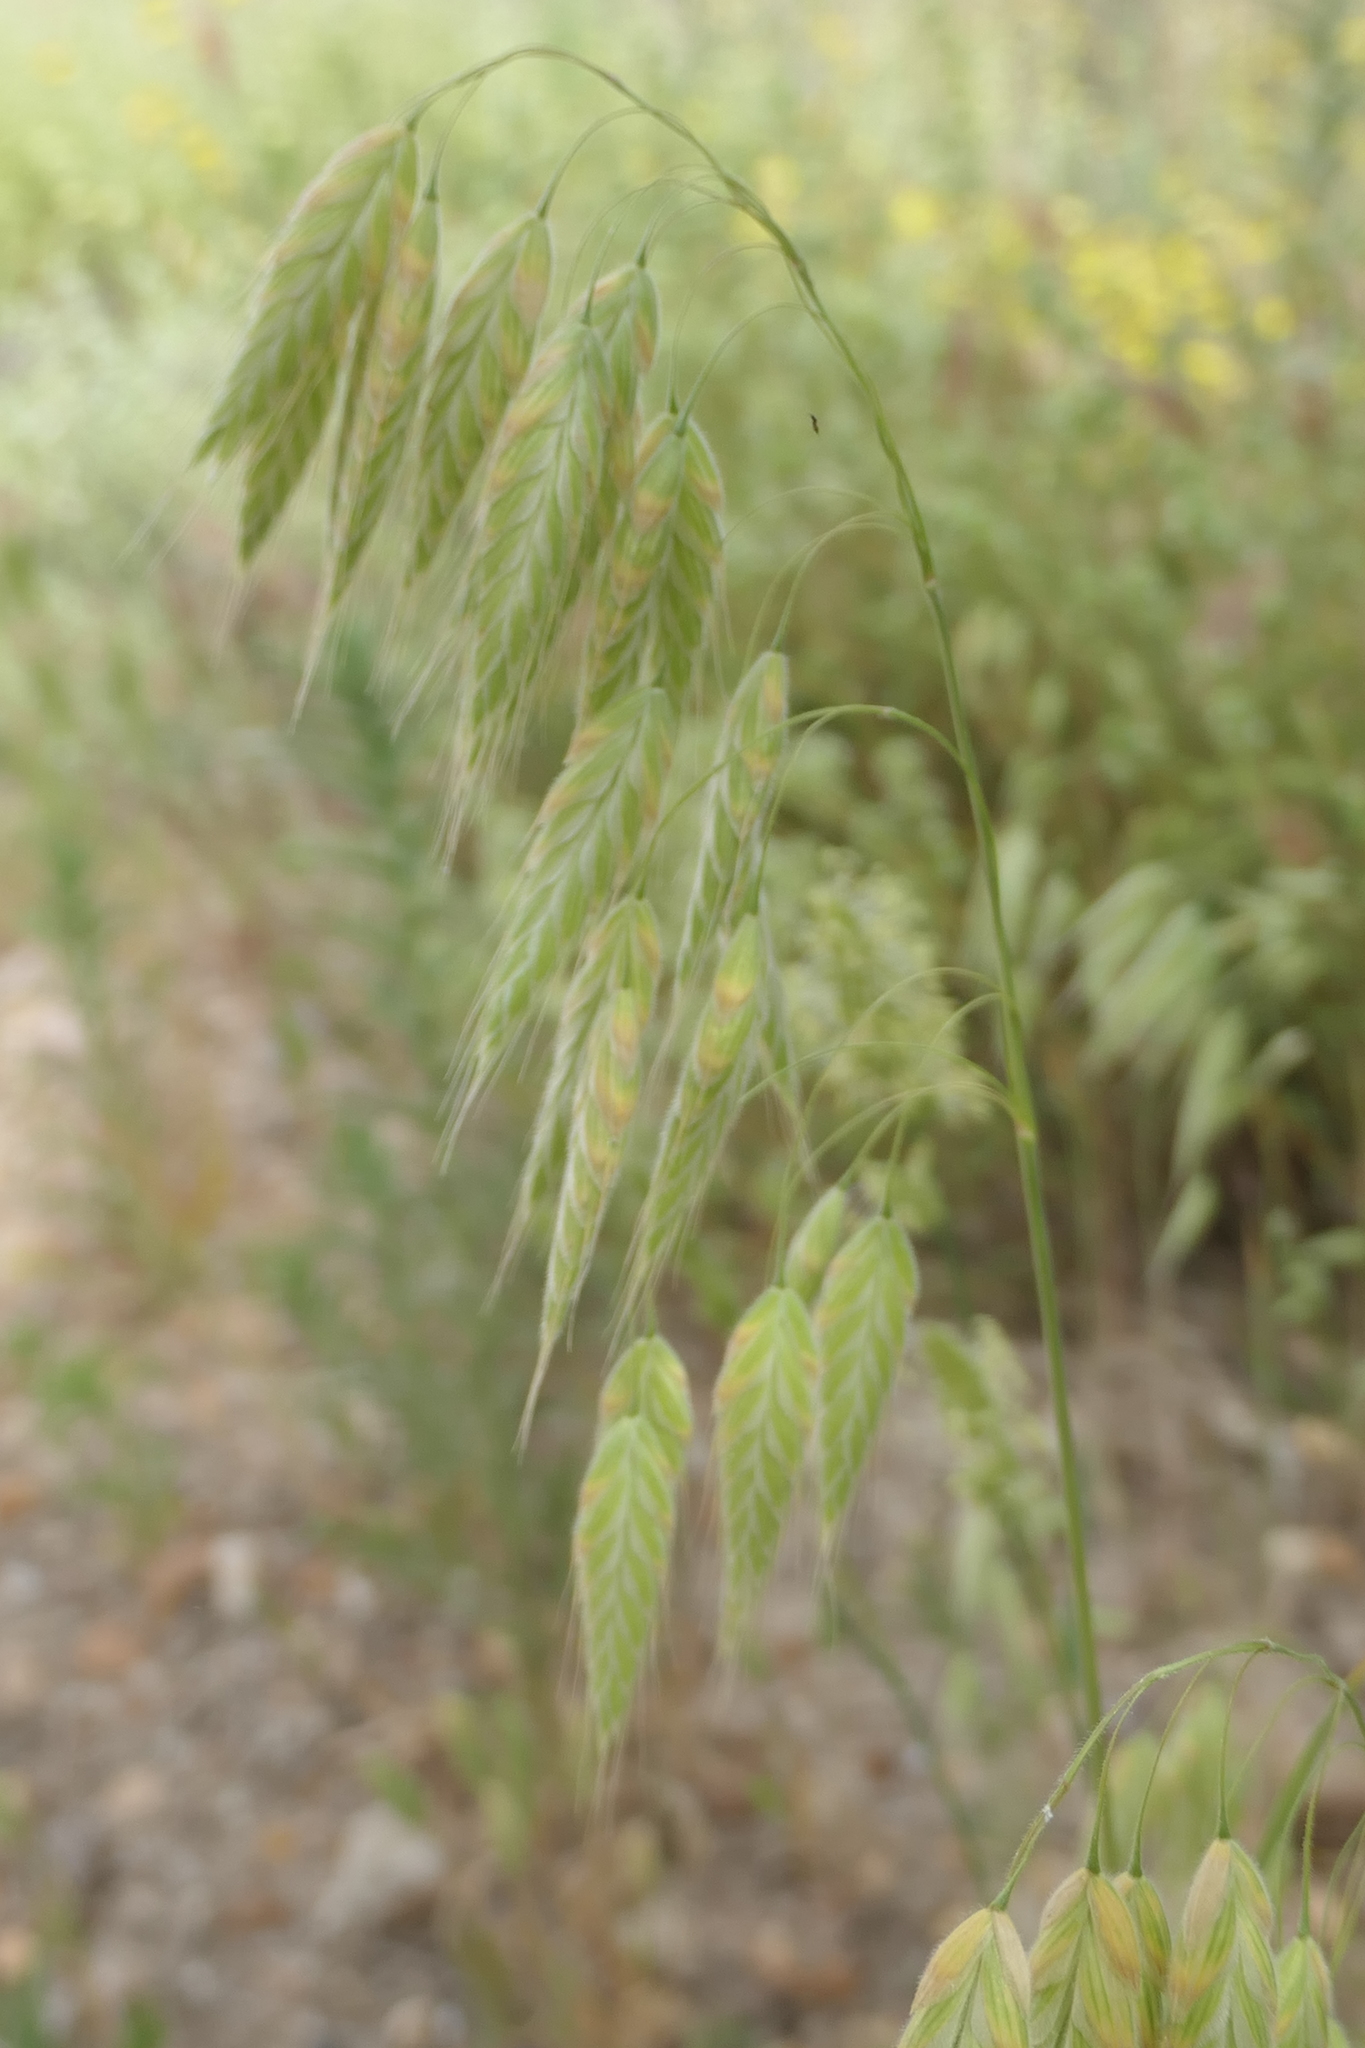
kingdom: Plantae
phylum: Tracheophyta
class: Liliopsida
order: Poales
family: Poaceae
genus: Bromus
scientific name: Bromus squarrosus
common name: Corn brome
